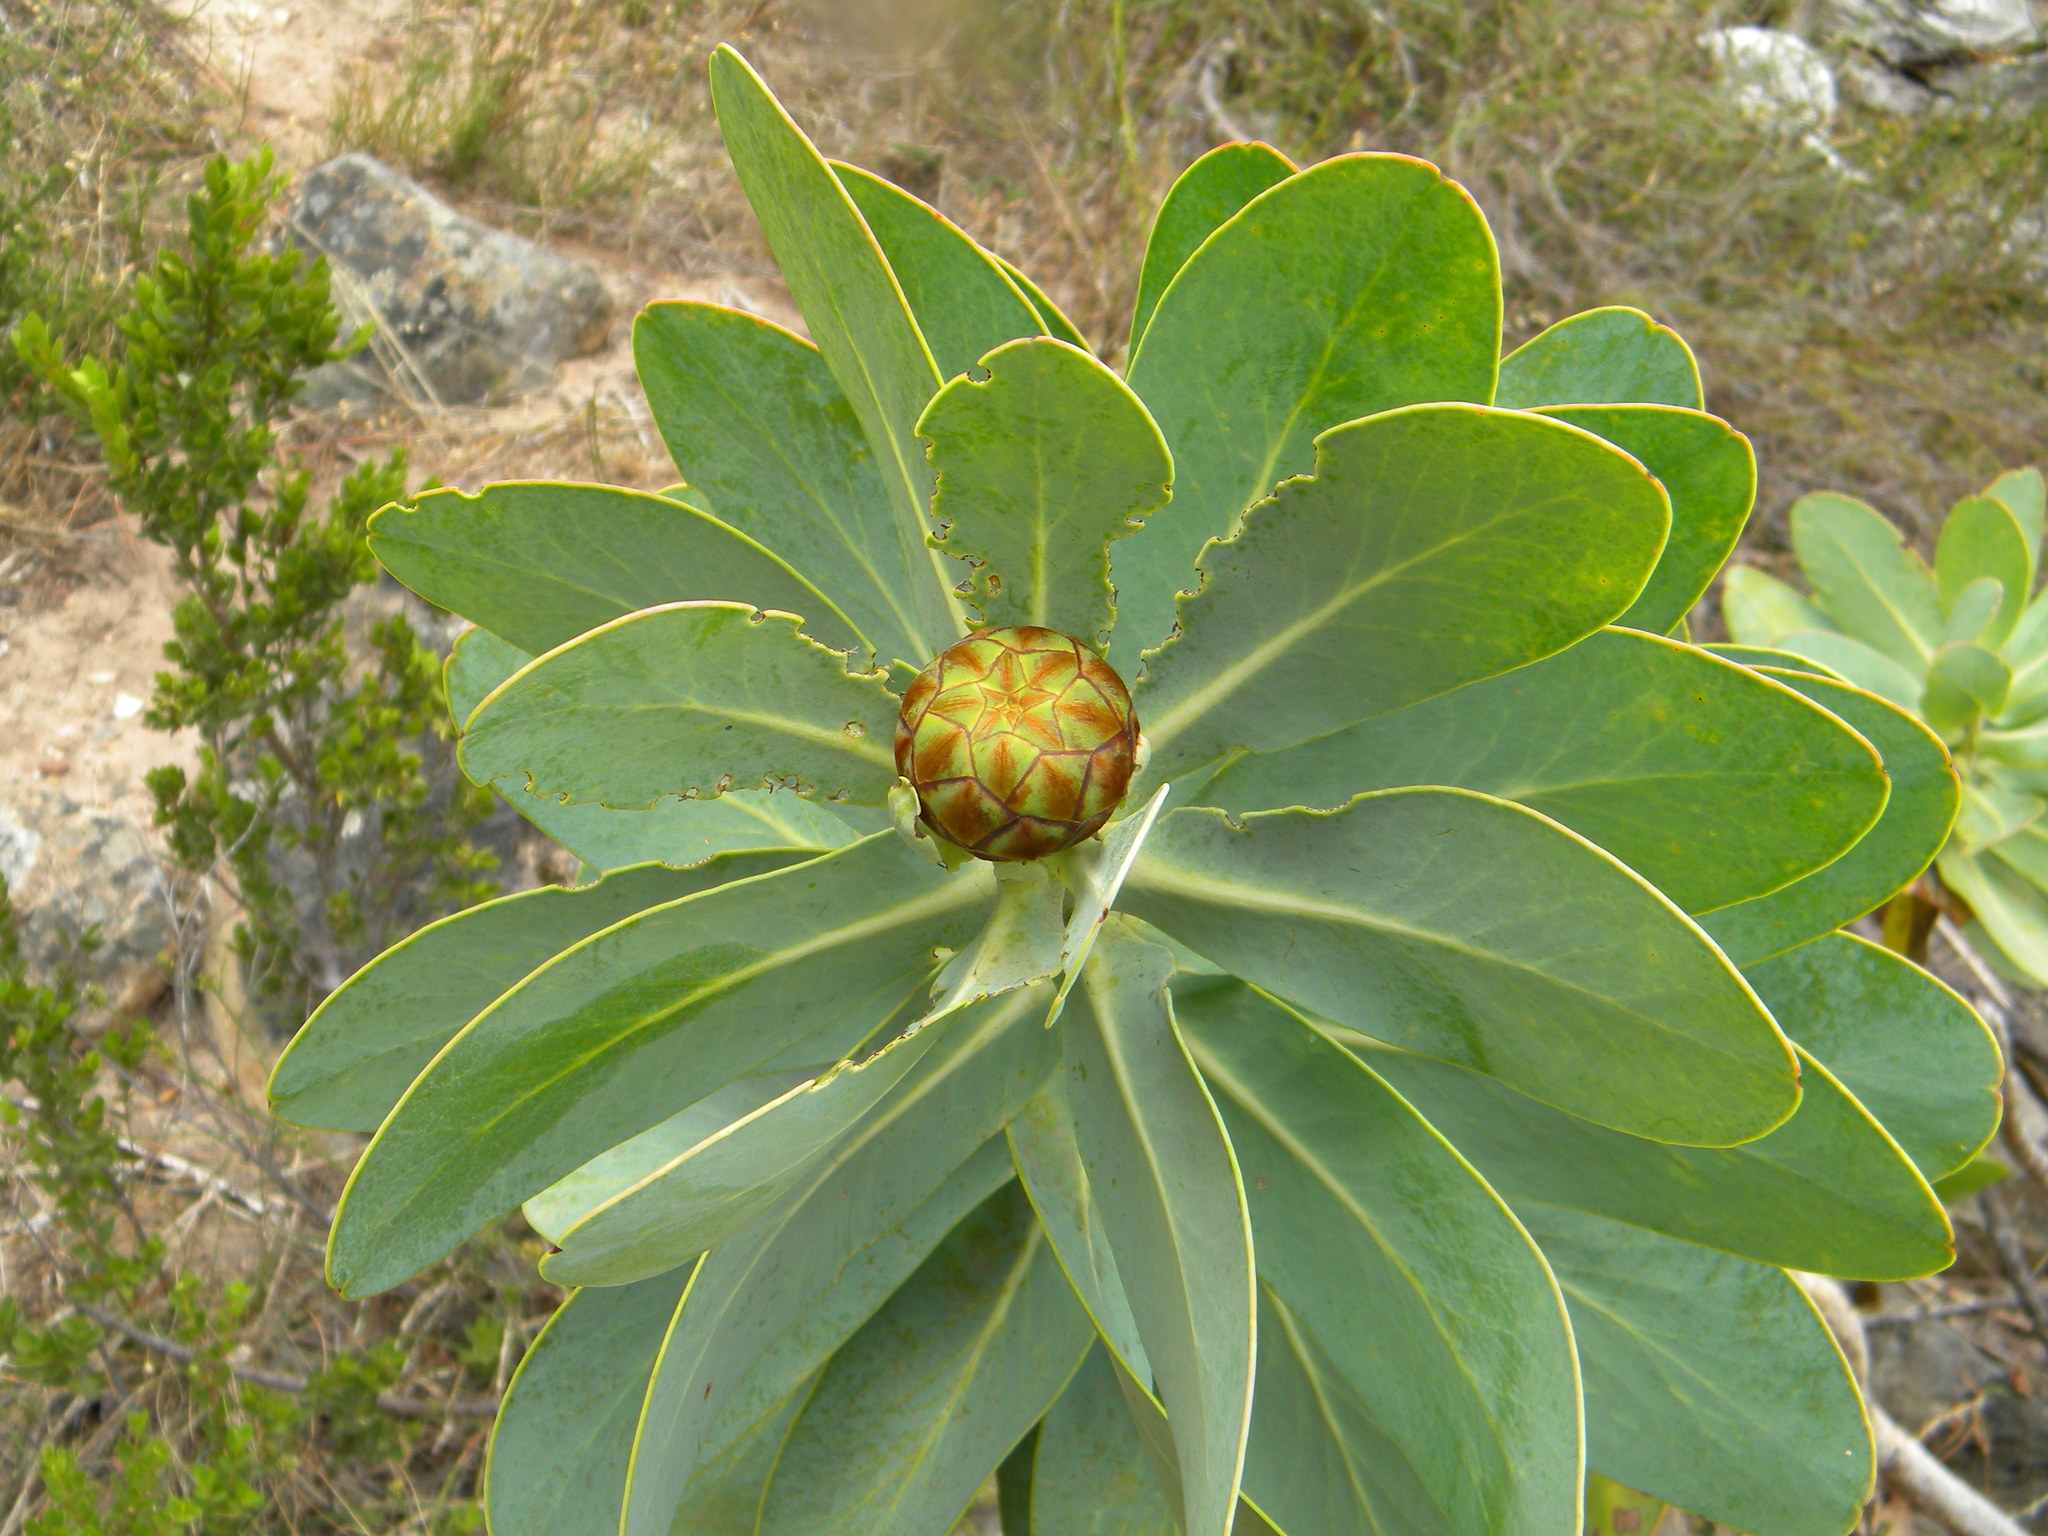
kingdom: Plantae
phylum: Tracheophyta
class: Magnoliopsida
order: Proteales
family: Proteaceae
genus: Protea
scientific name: Protea nitida
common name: Tree protea
